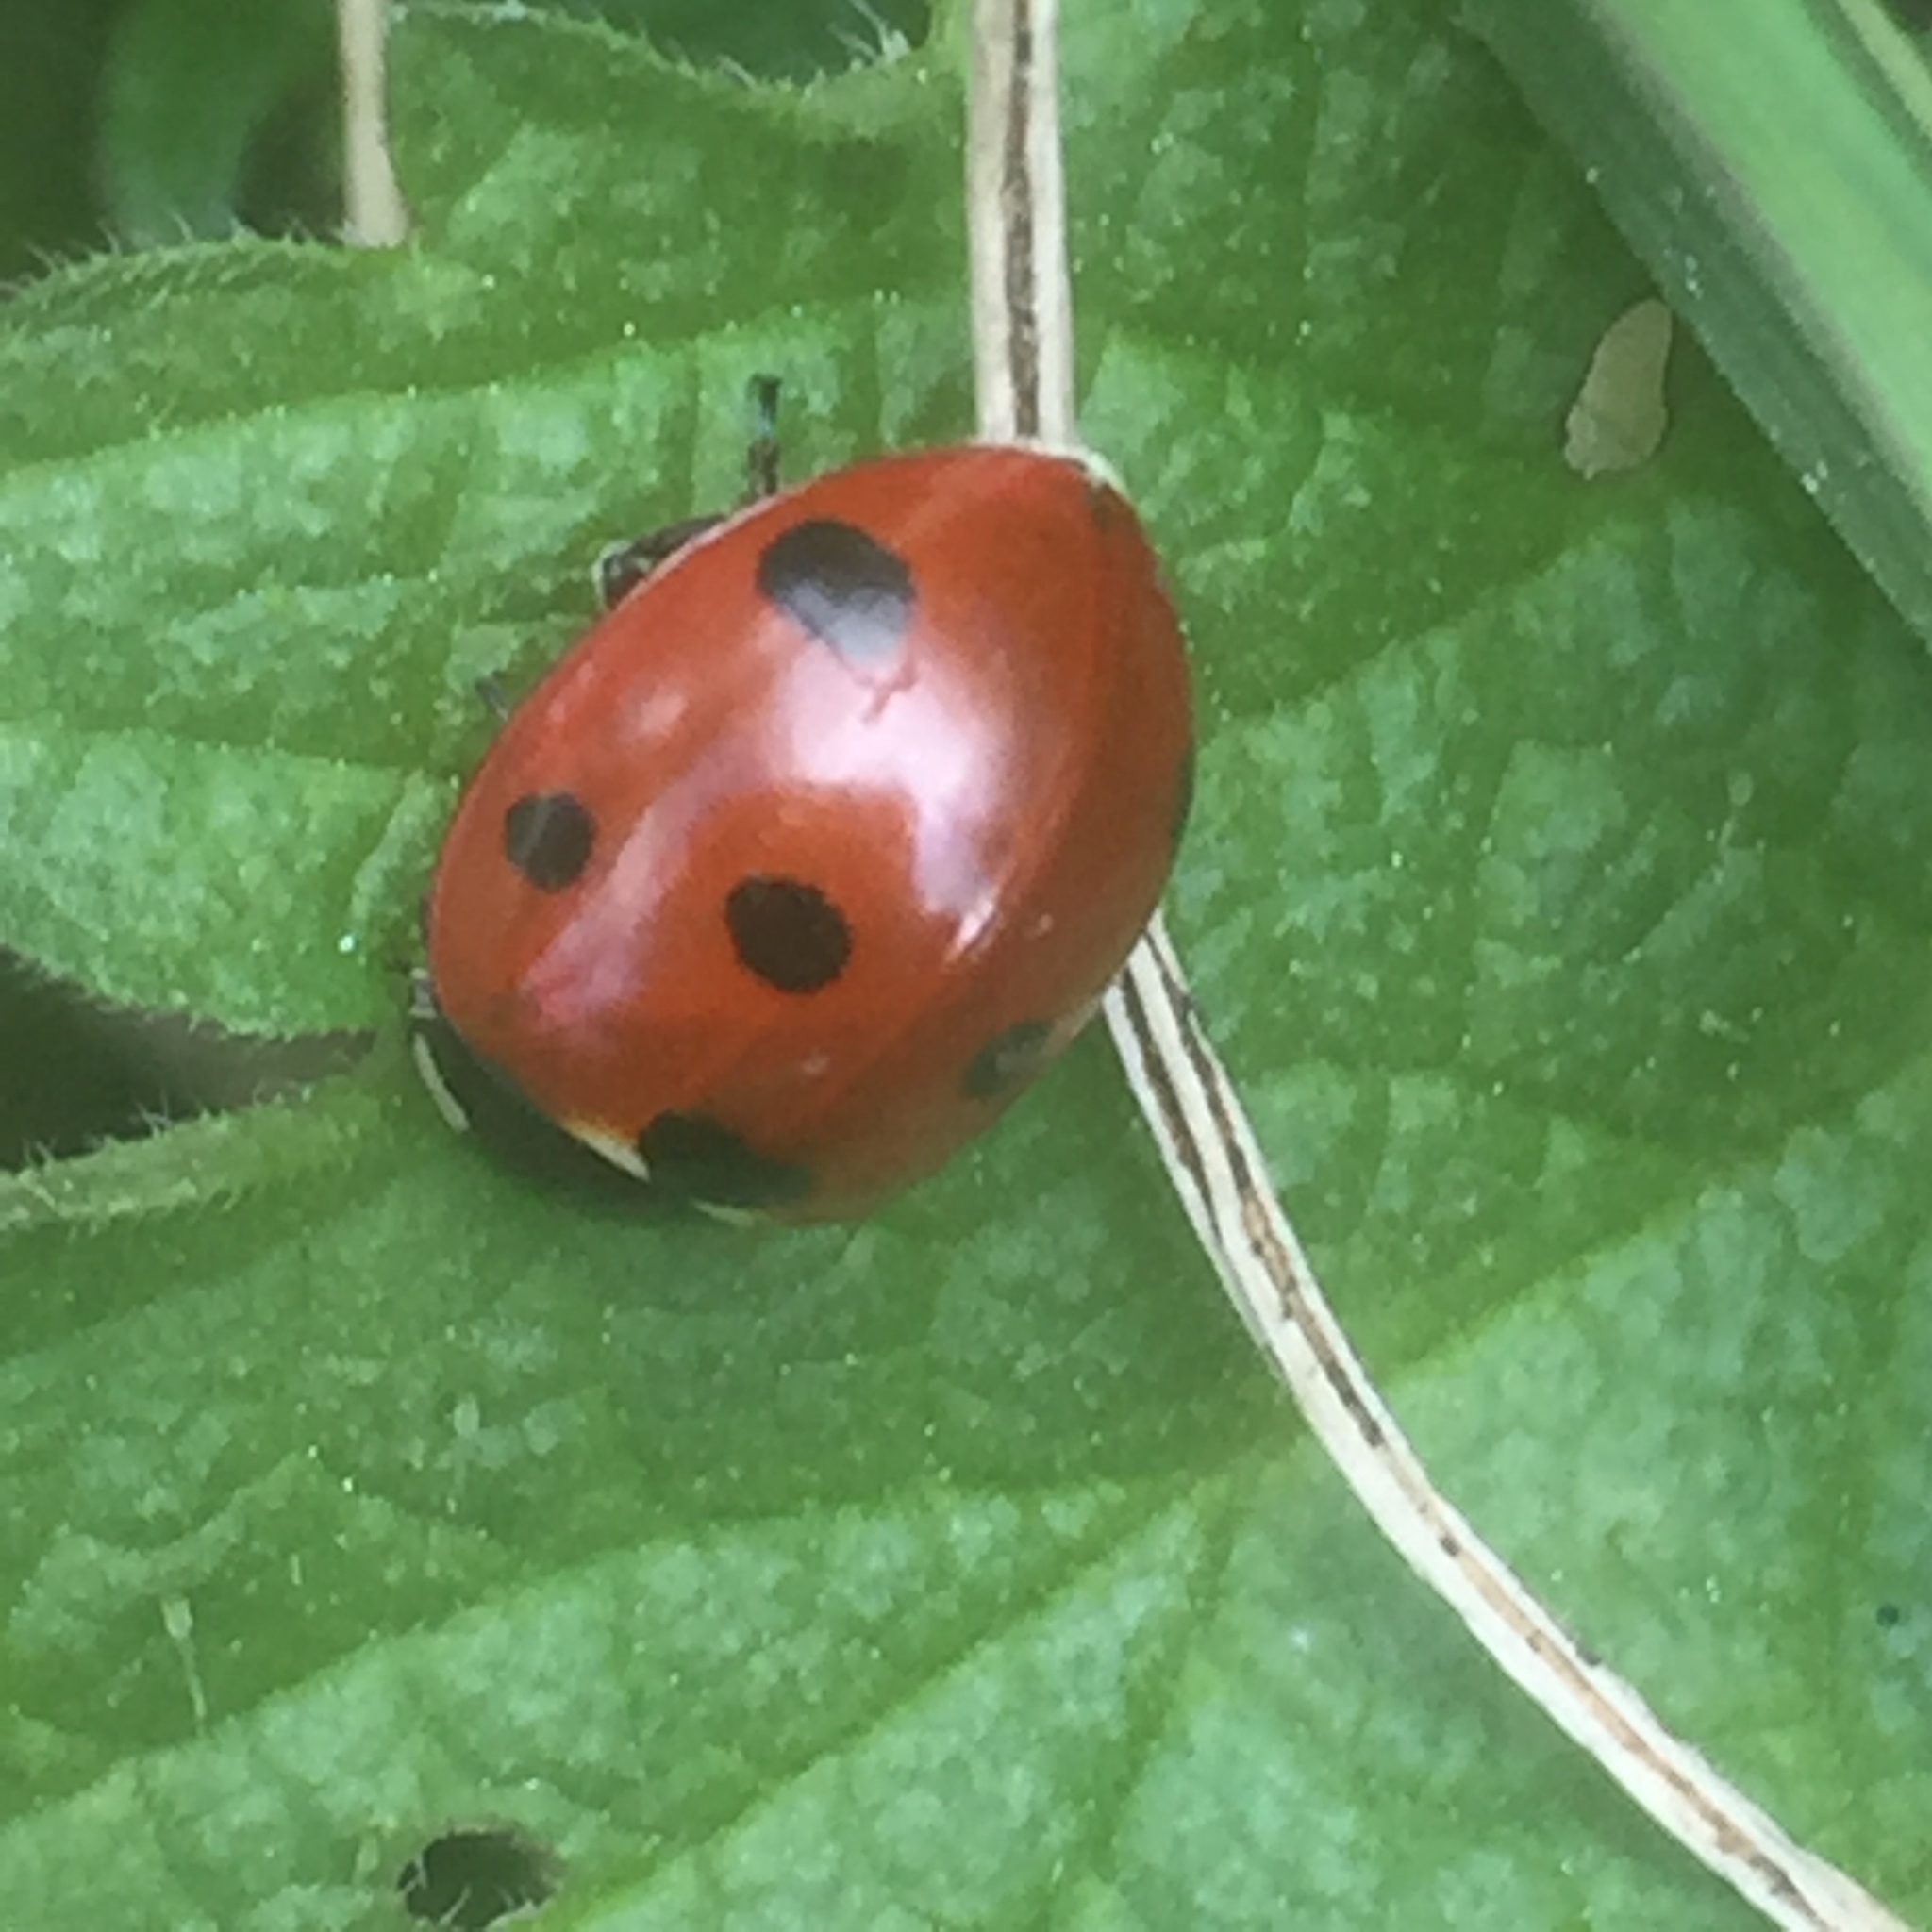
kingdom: Animalia
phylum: Arthropoda
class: Insecta
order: Coleoptera
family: Coccinellidae
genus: Coccinella
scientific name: Coccinella septempunctata
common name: Sevenspotted lady beetle
